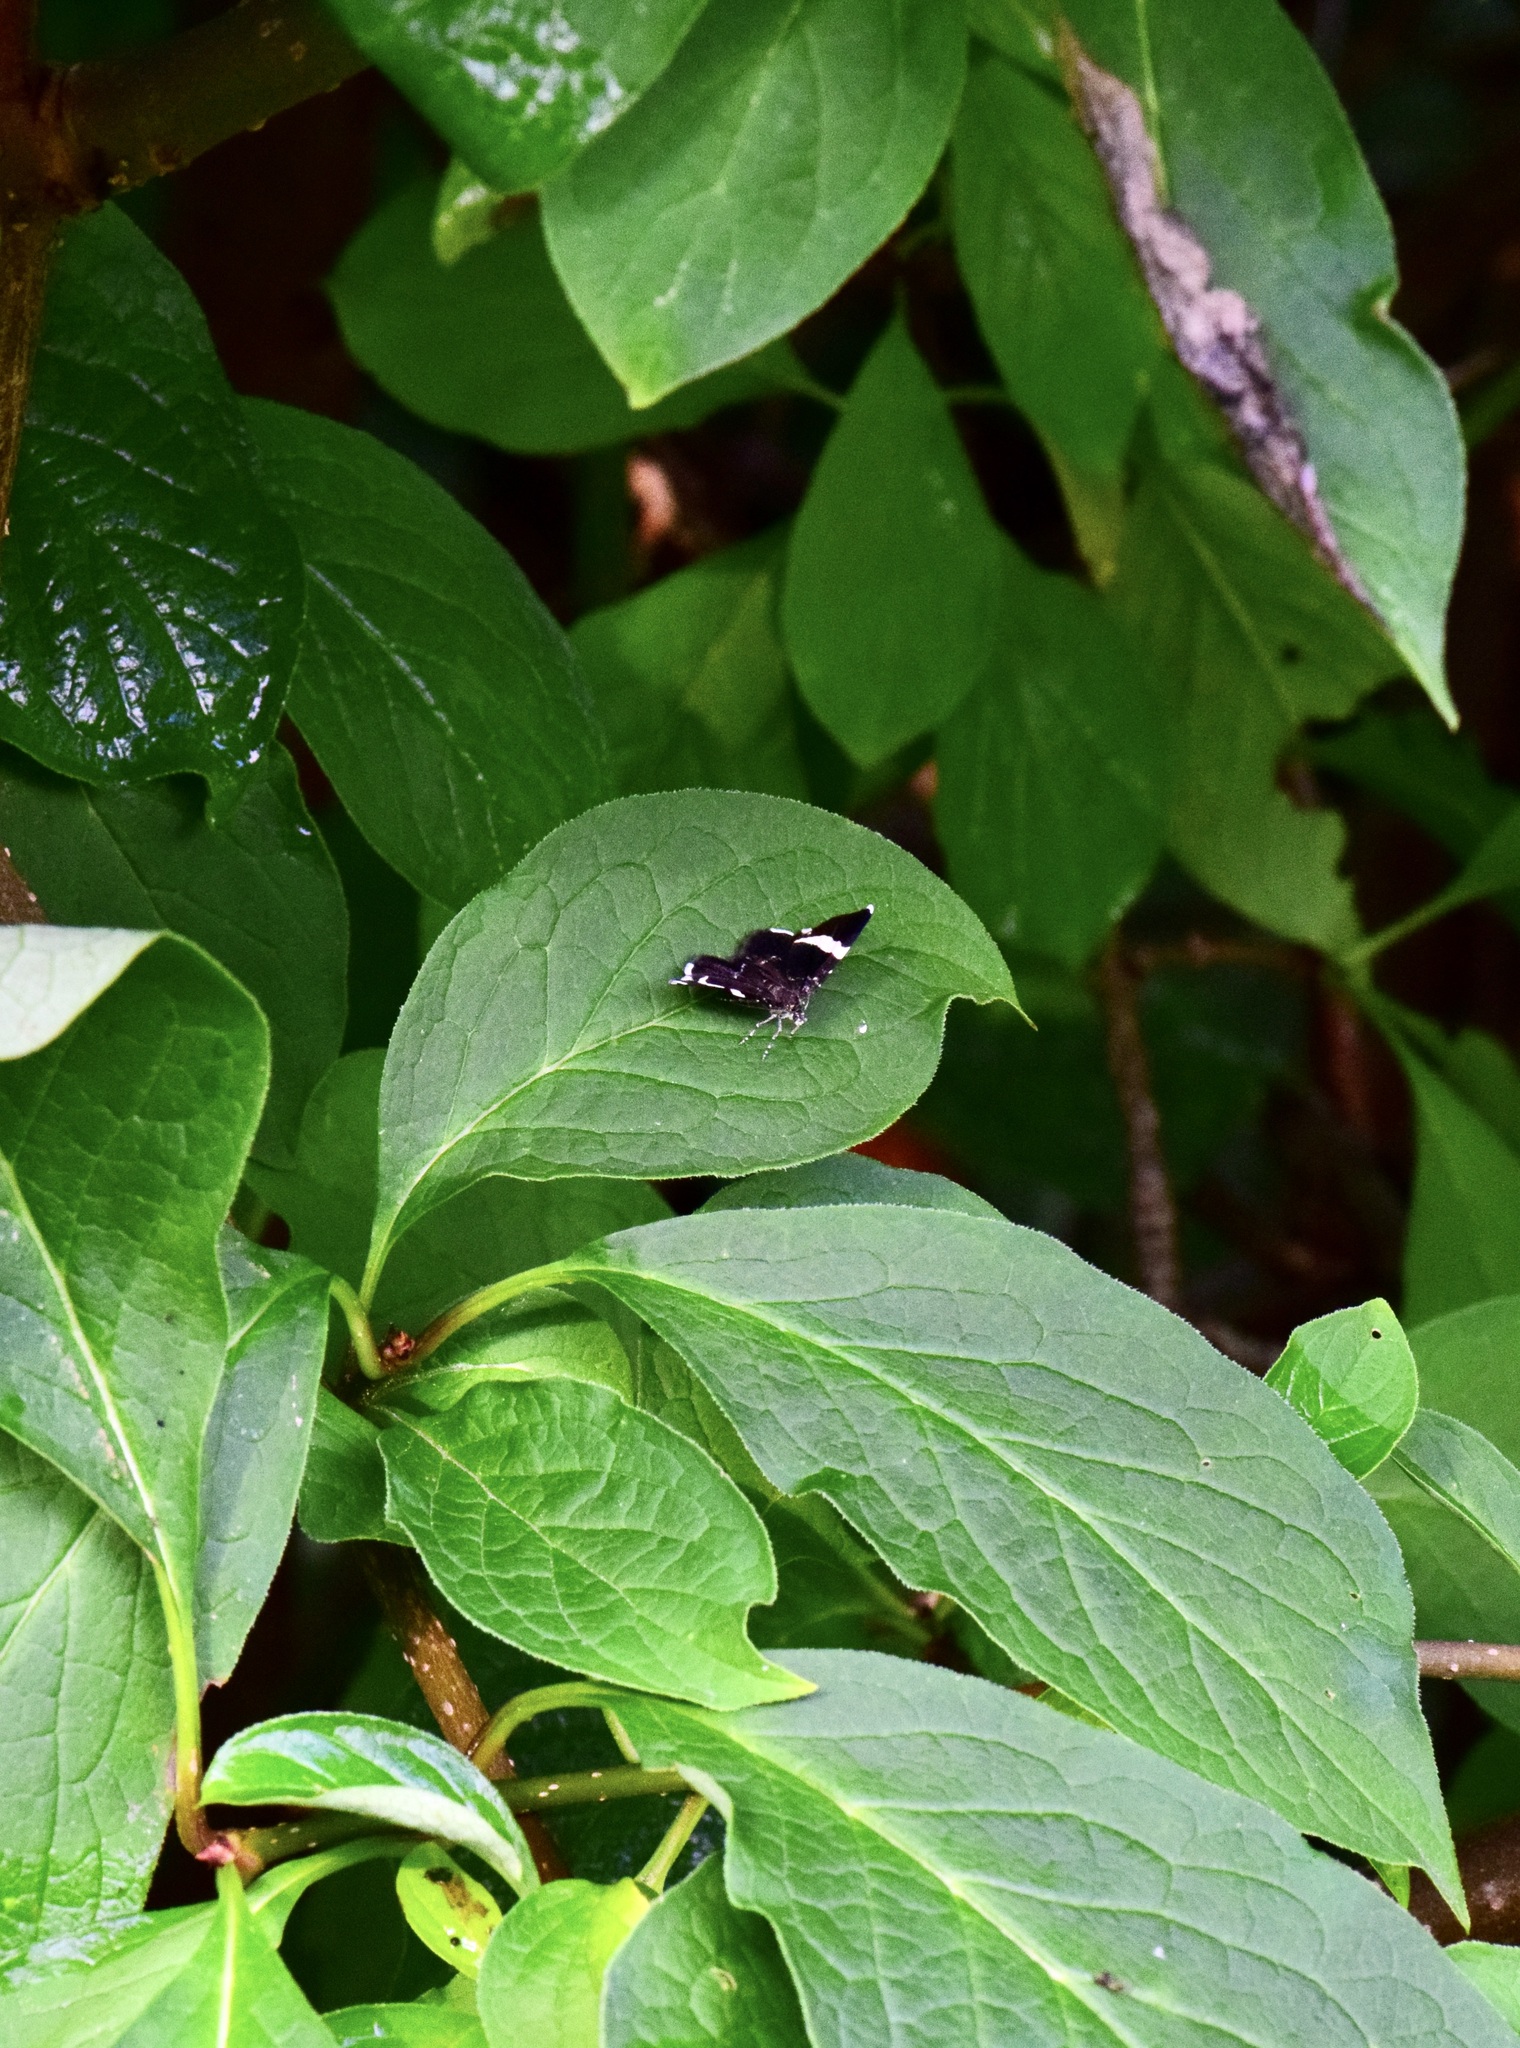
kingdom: Animalia
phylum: Arthropoda
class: Insecta
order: Lepidoptera
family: Geometridae
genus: Trichodezia
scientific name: Trichodezia albovittata
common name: White striped black
